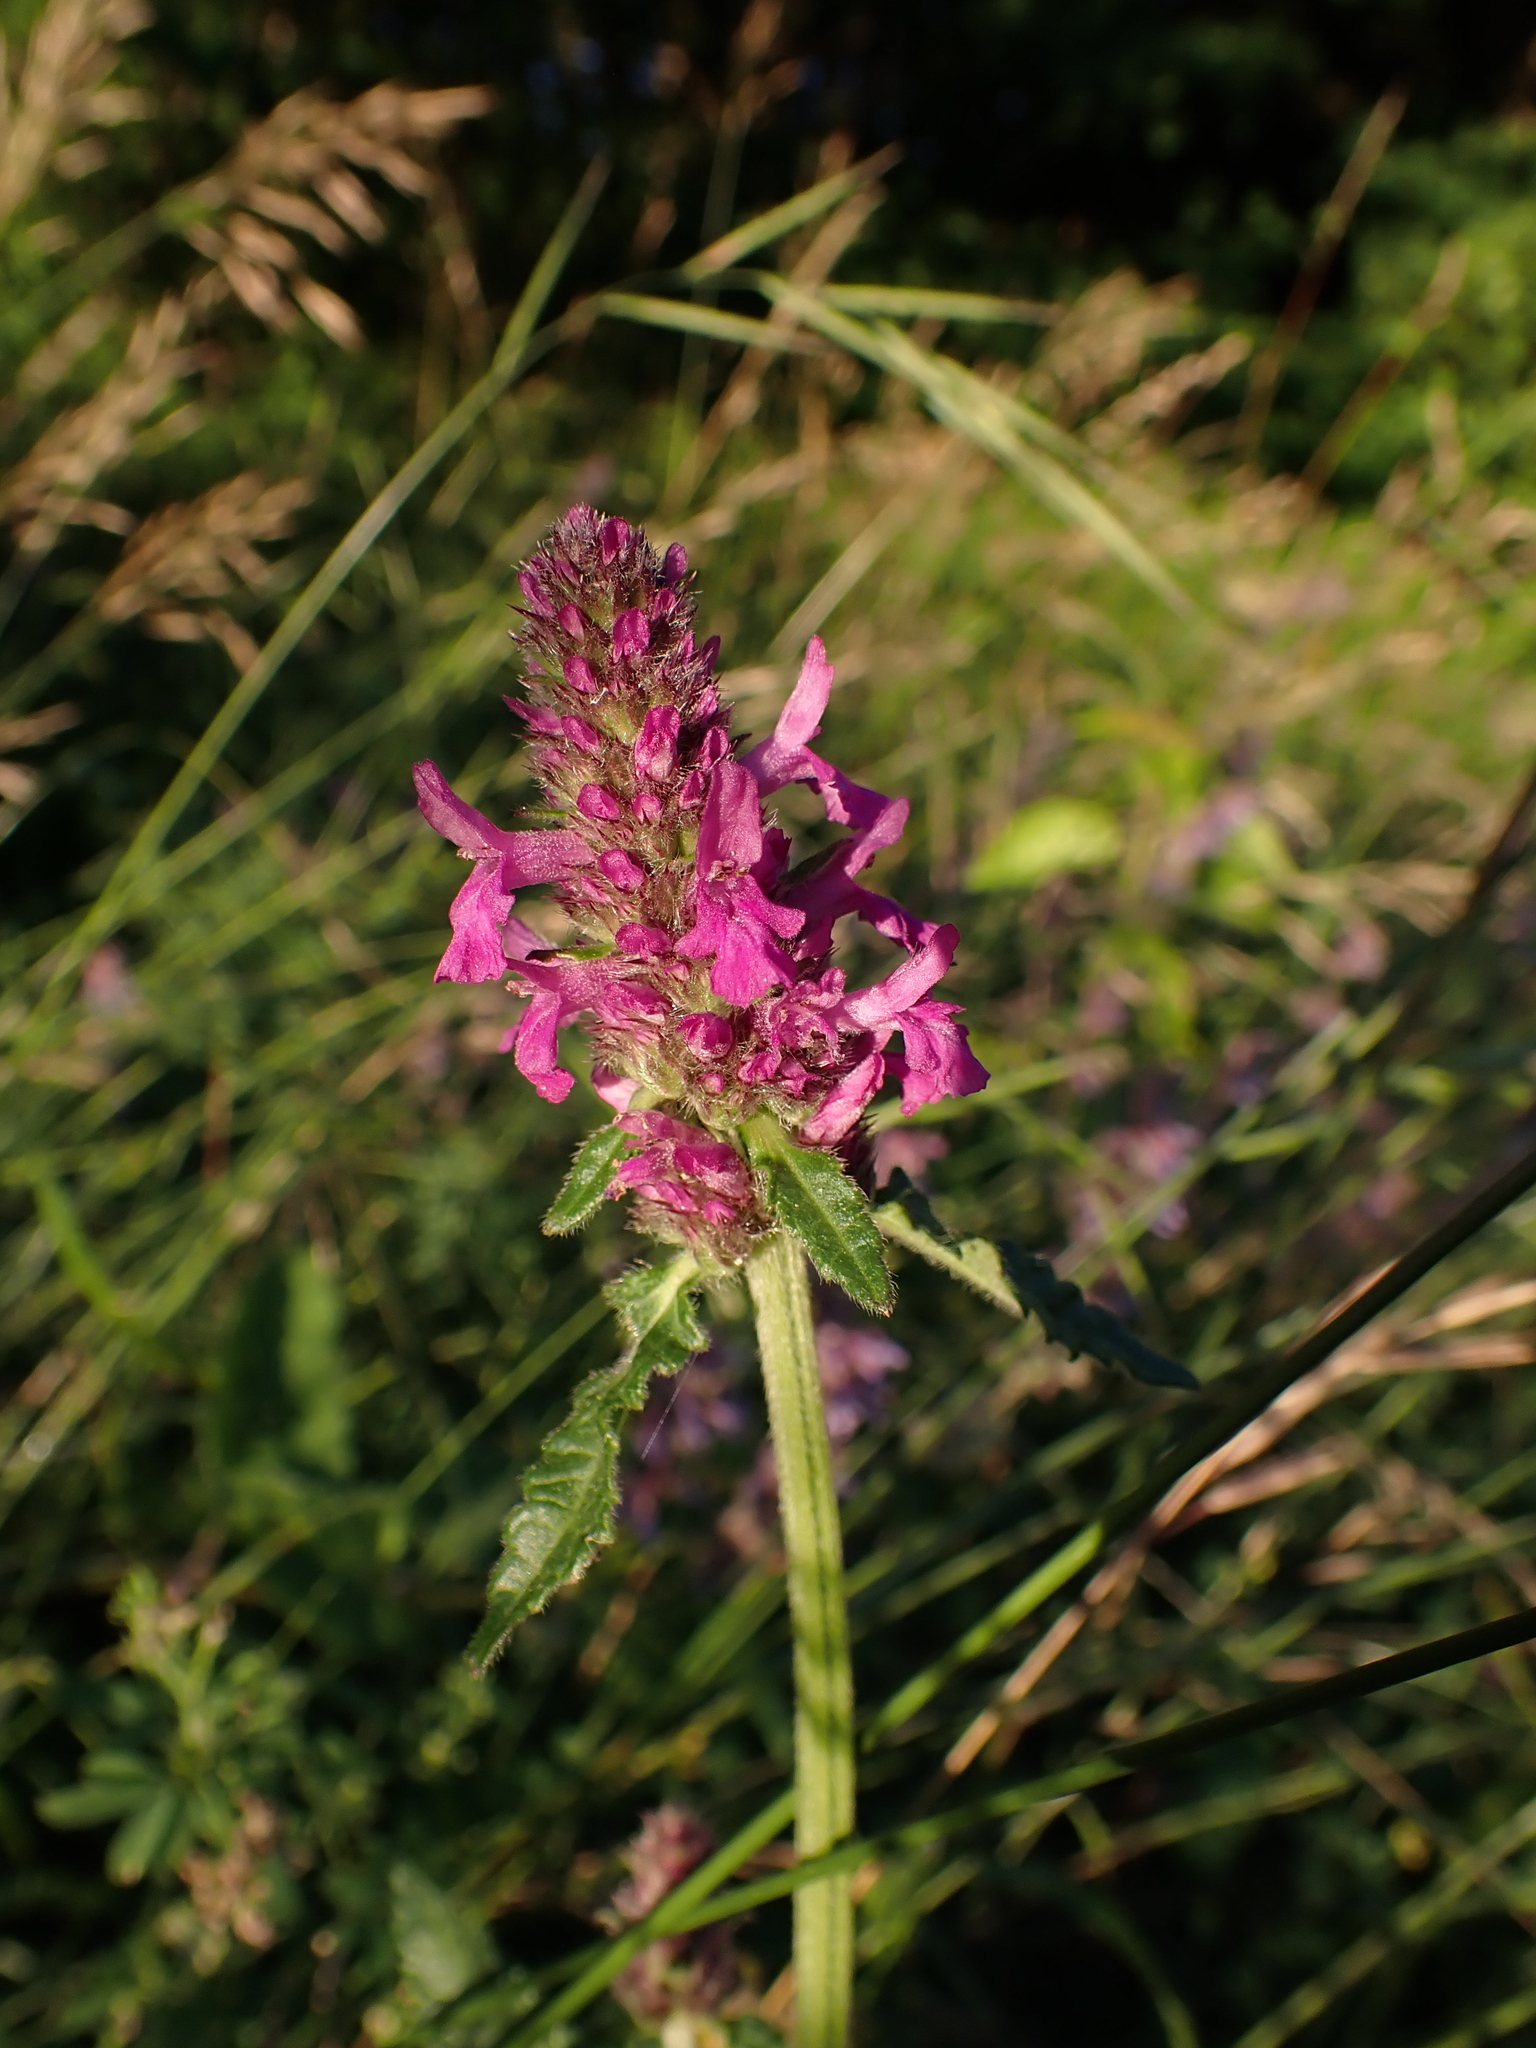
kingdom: Plantae
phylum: Tracheophyta
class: Magnoliopsida
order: Lamiales
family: Lamiaceae
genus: Betonica
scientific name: Betonica officinalis
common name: Bishop's-wort
